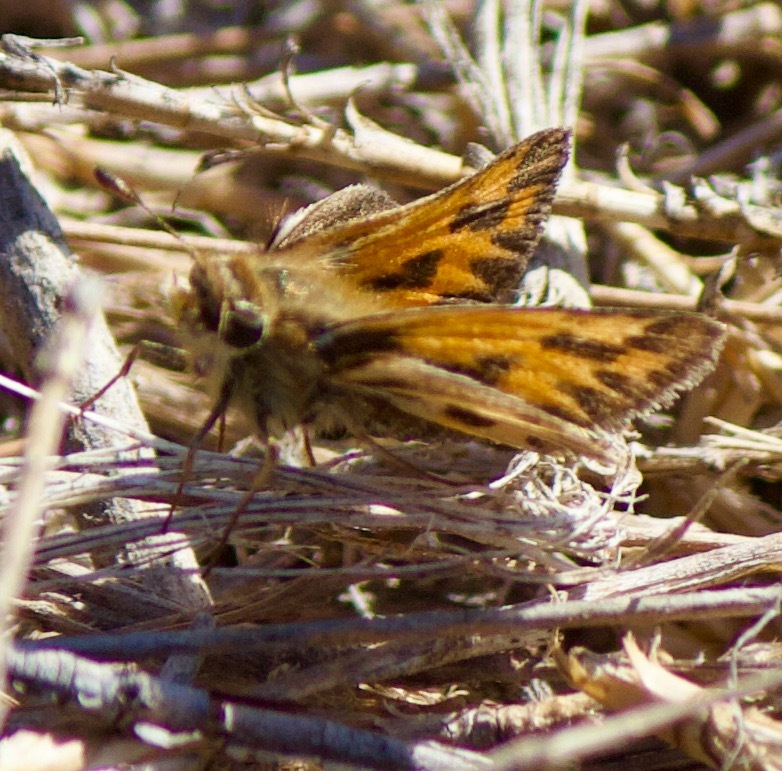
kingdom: Animalia
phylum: Arthropoda
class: Insecta
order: Lepidoptera
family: Hesperiidae
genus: Hylephila
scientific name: Hylephila fasciolata
